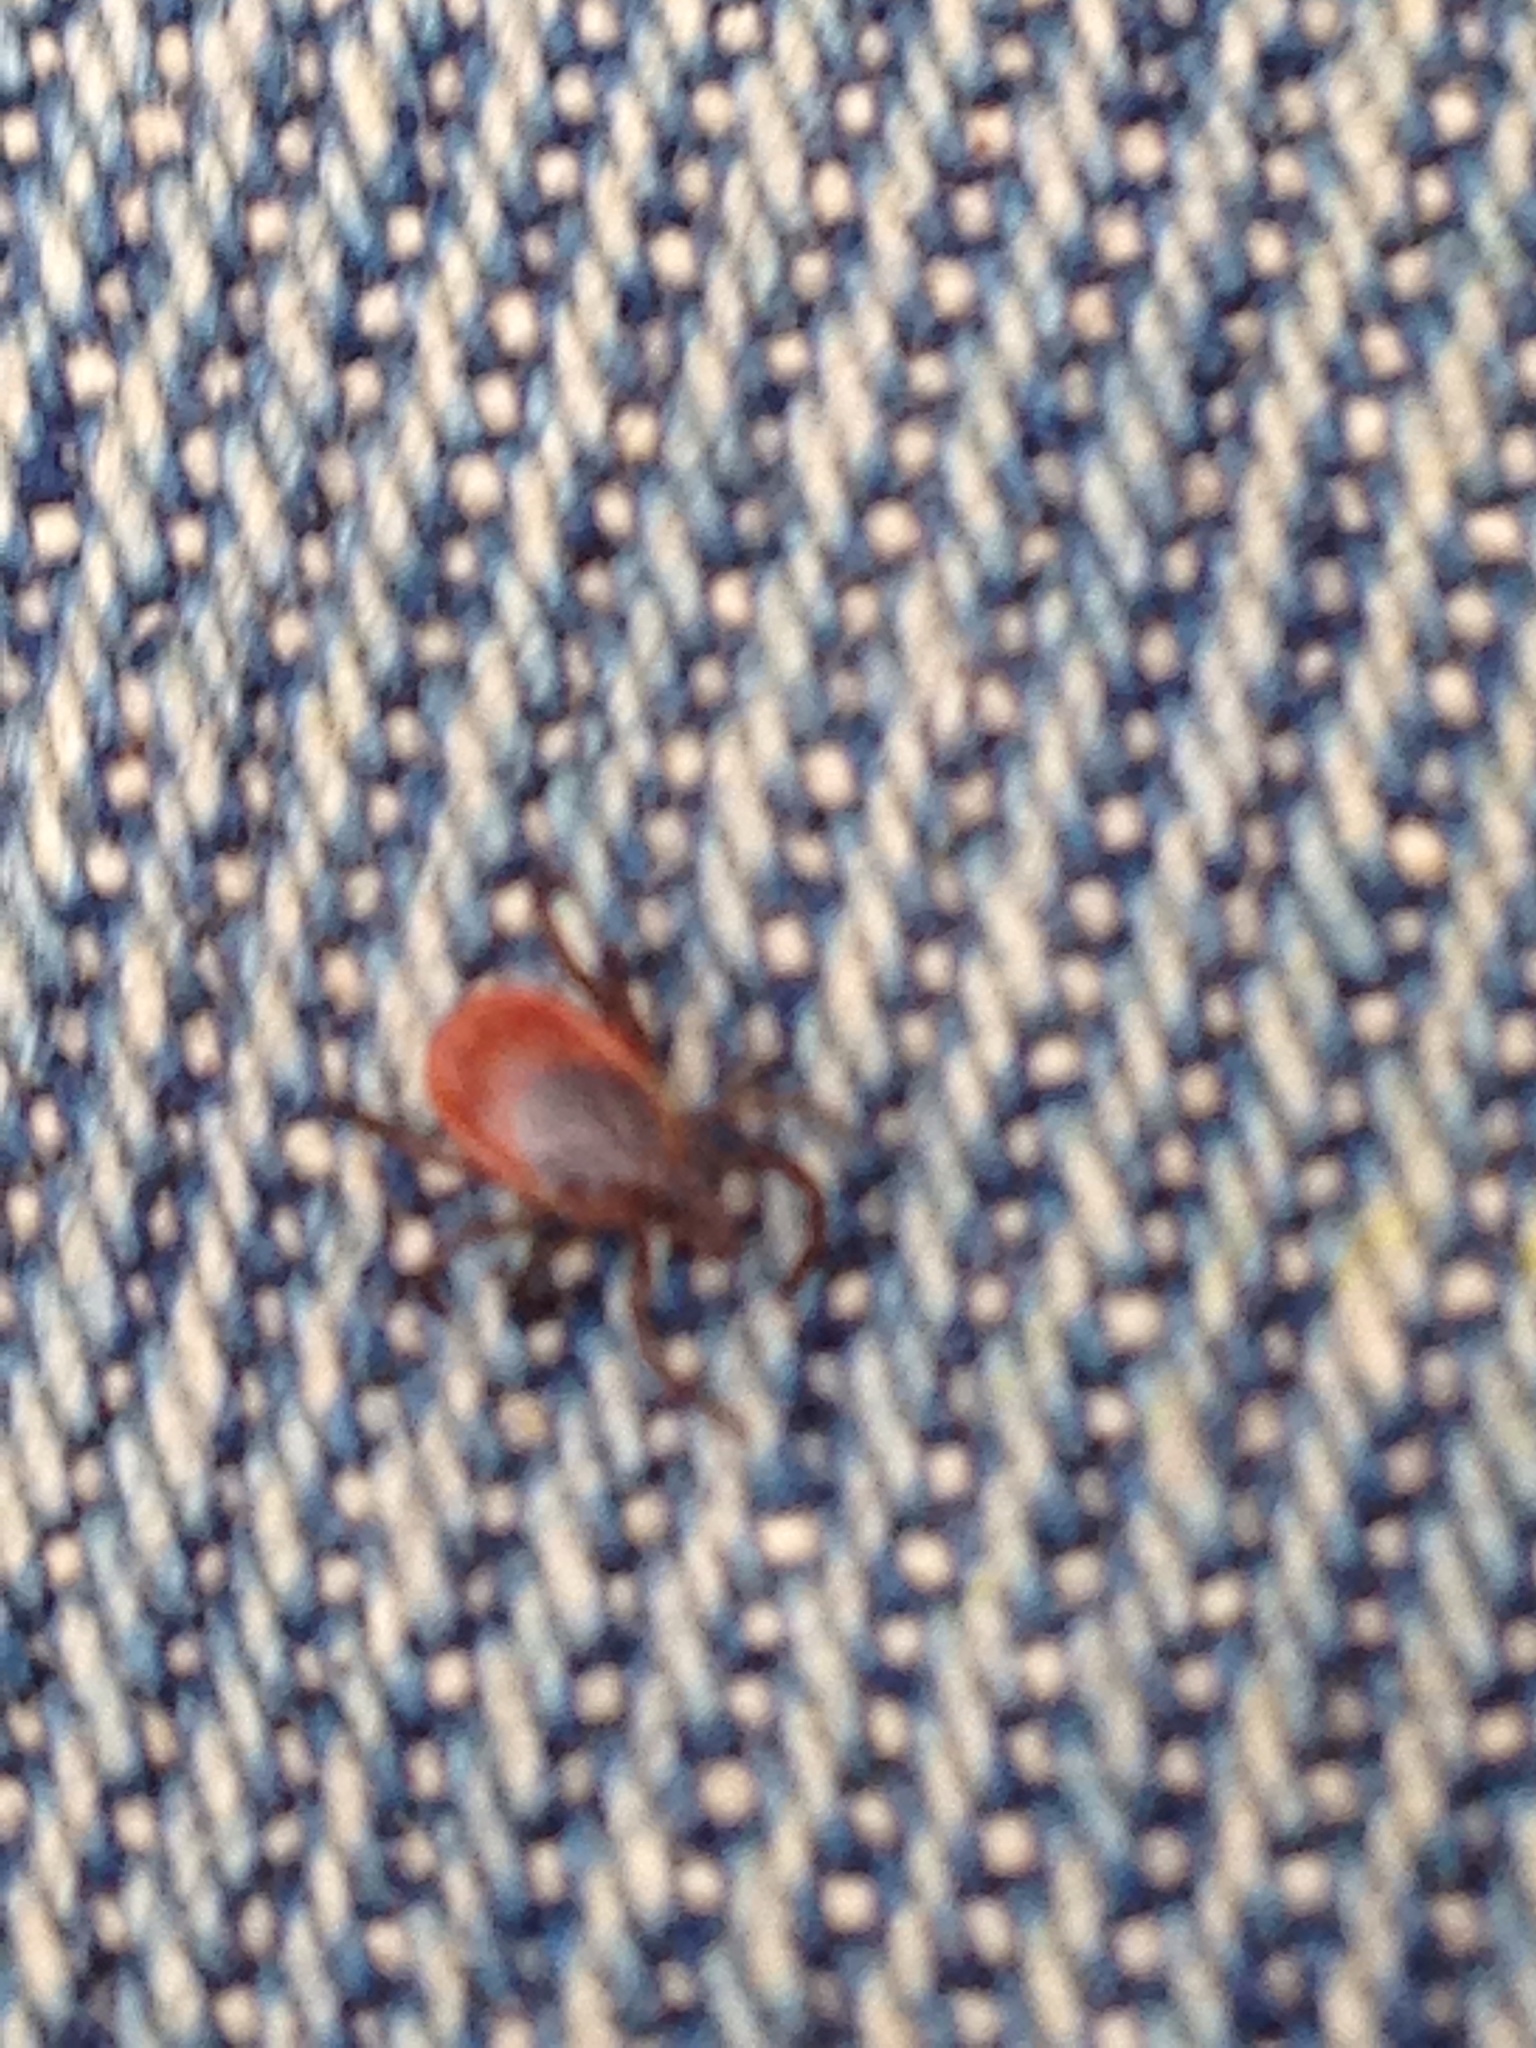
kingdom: Animalia
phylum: Arthropoda
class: Arachnida
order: Ixodida
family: Ixodidae
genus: Ixodes
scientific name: Ixodes scapularis
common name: Black legged tick
